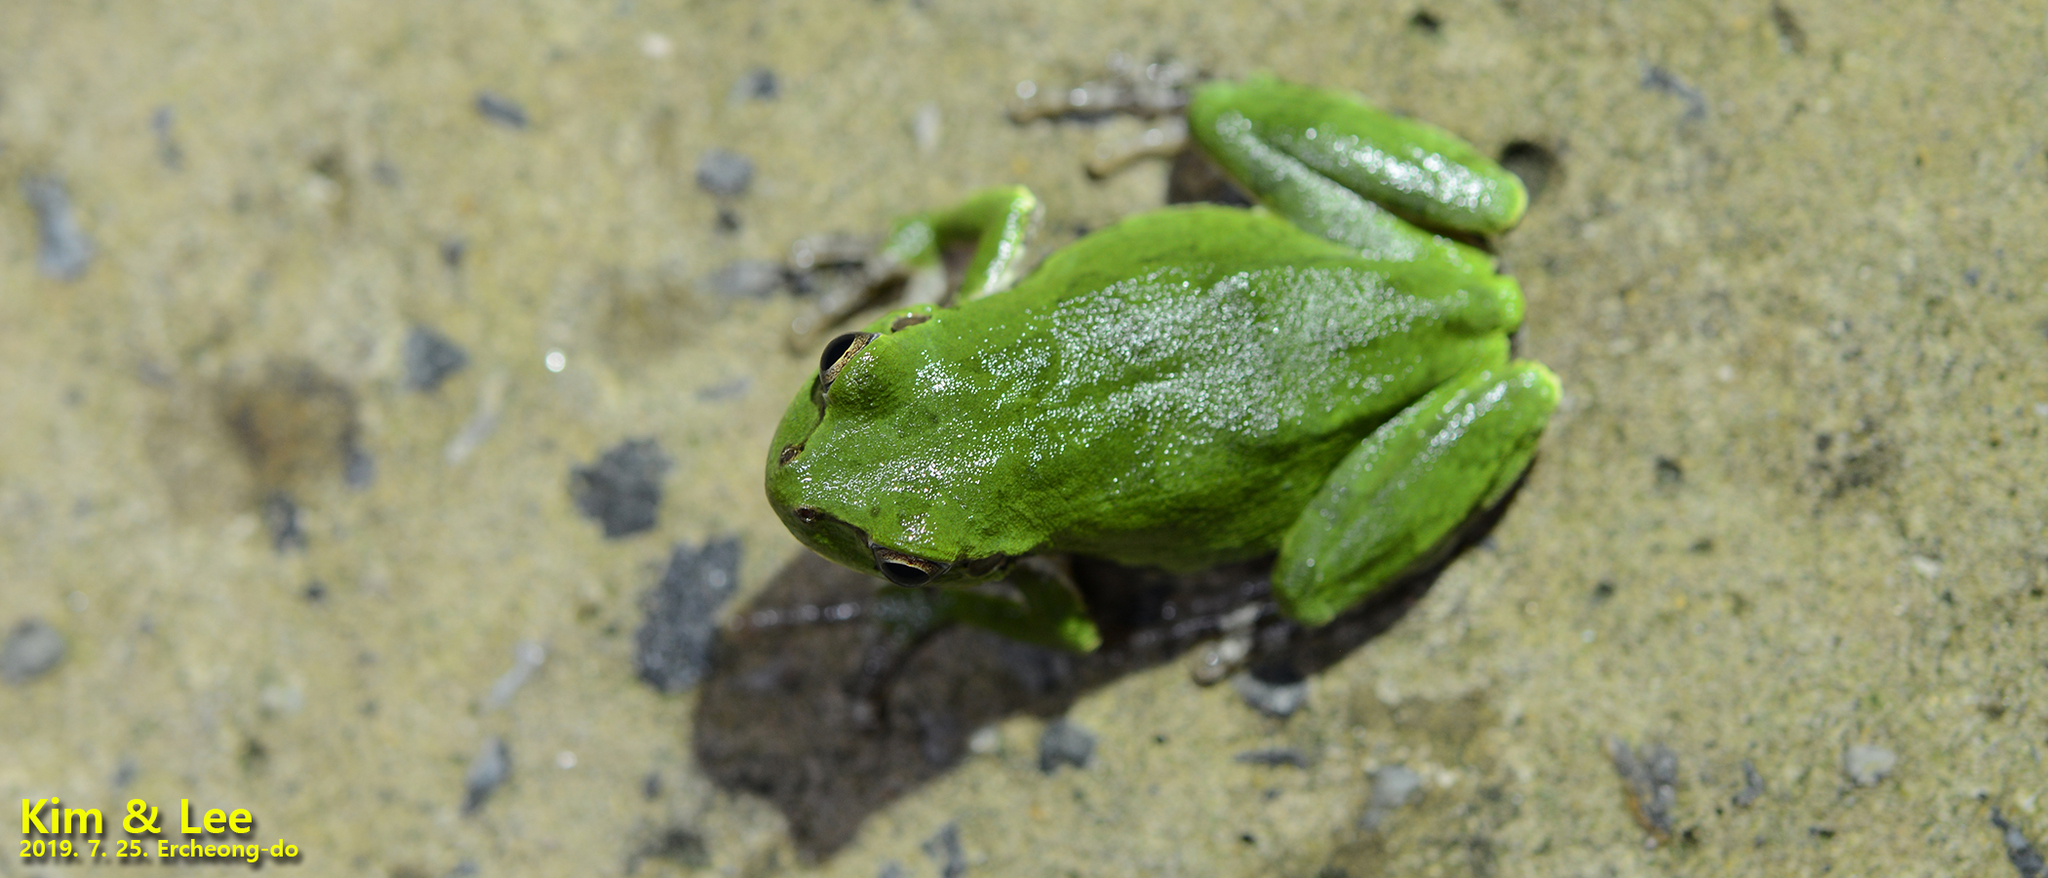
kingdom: Animalia
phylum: Chordata
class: Amphibia
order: Anura
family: Hylidae
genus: Dryophytes
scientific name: Dryophytes japonicus
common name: Japanese treefrog
